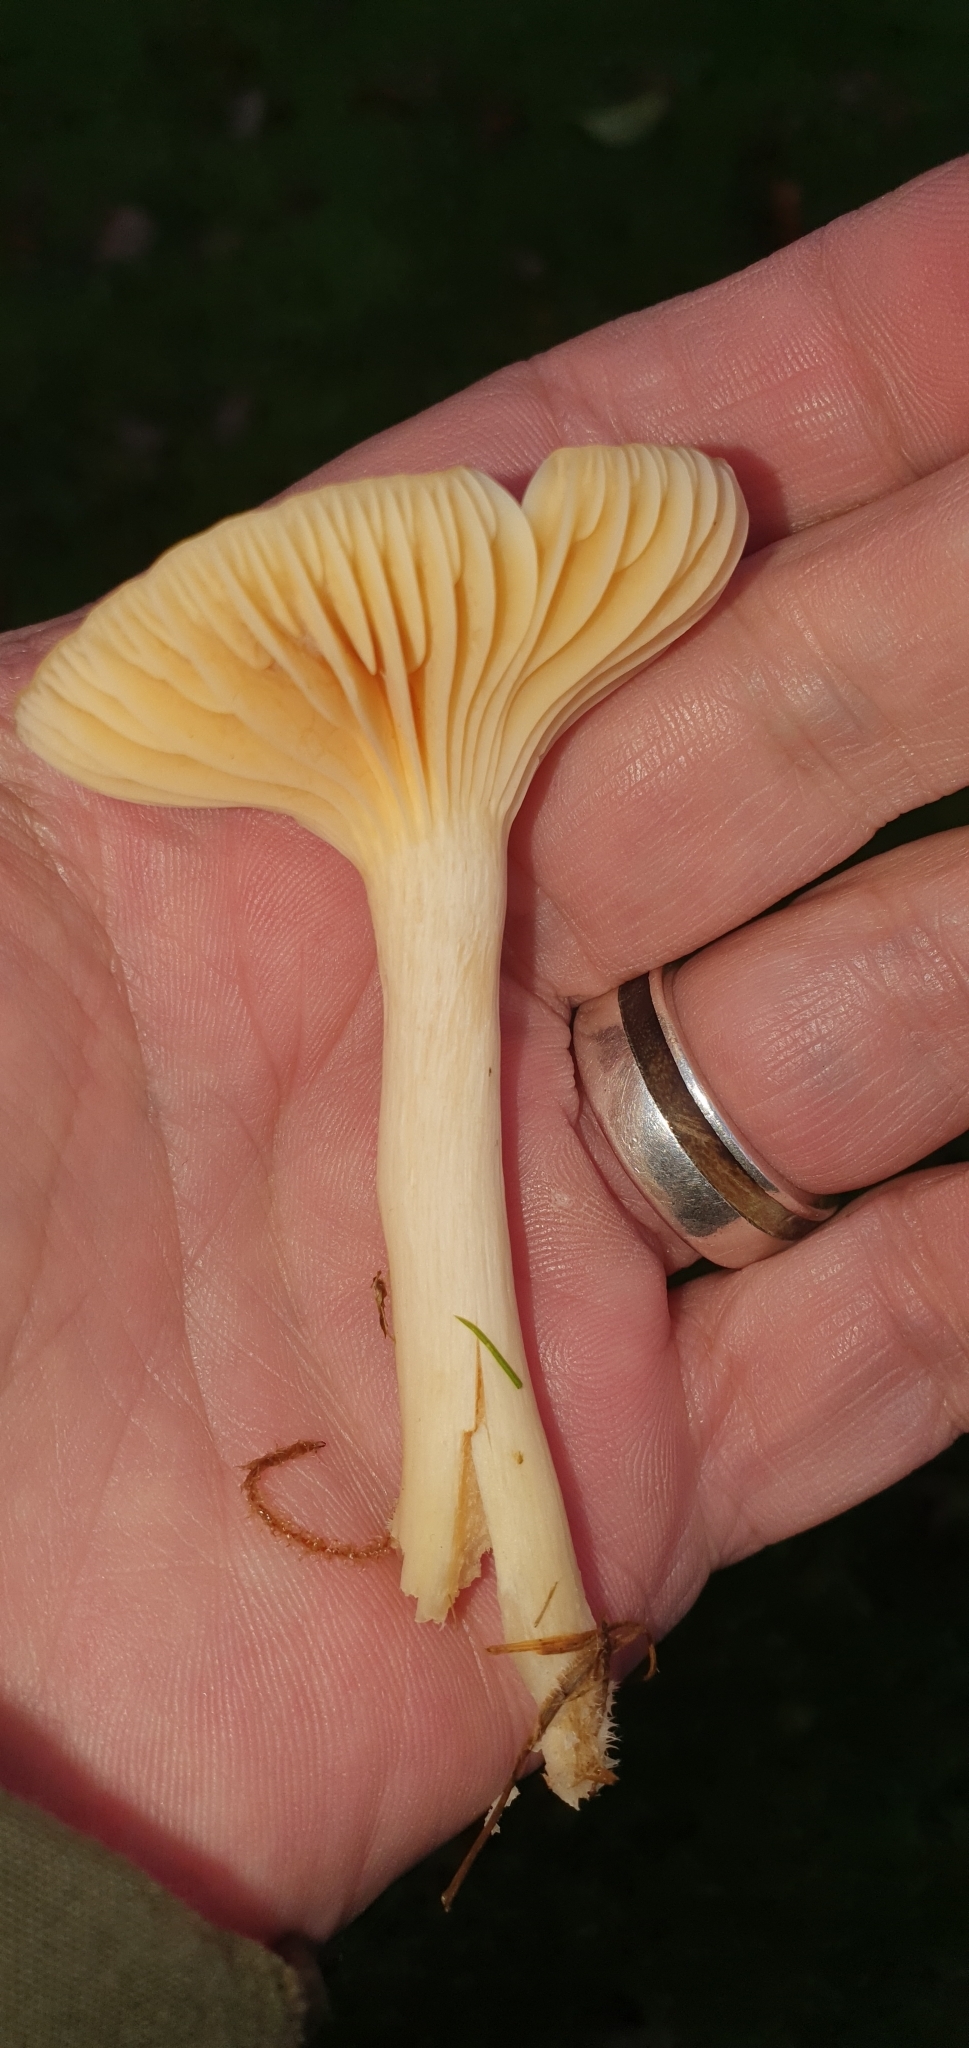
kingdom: Fungi
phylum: Basidiomycota
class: Agaricomycetes
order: Agaricales
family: Hygrophoraceae
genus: Cuphophyllus
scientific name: Cuphophyllus pratensis
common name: Meadow waxcap
